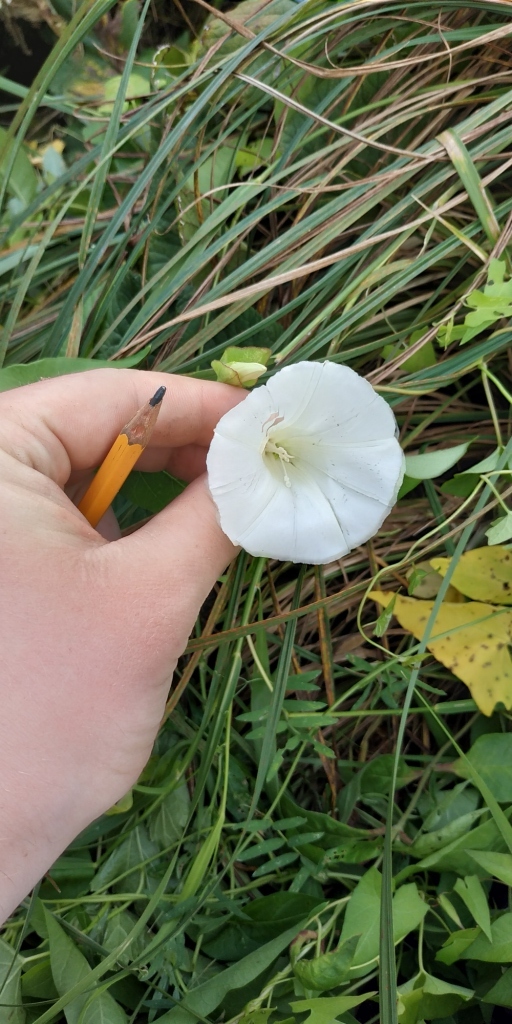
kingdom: Plantae
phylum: Tracheophyta
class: Magnoliopsida
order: Solanales
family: Convolvulaceae
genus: Calystegia
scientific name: Calystegia sepium
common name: Hedge bindweed
